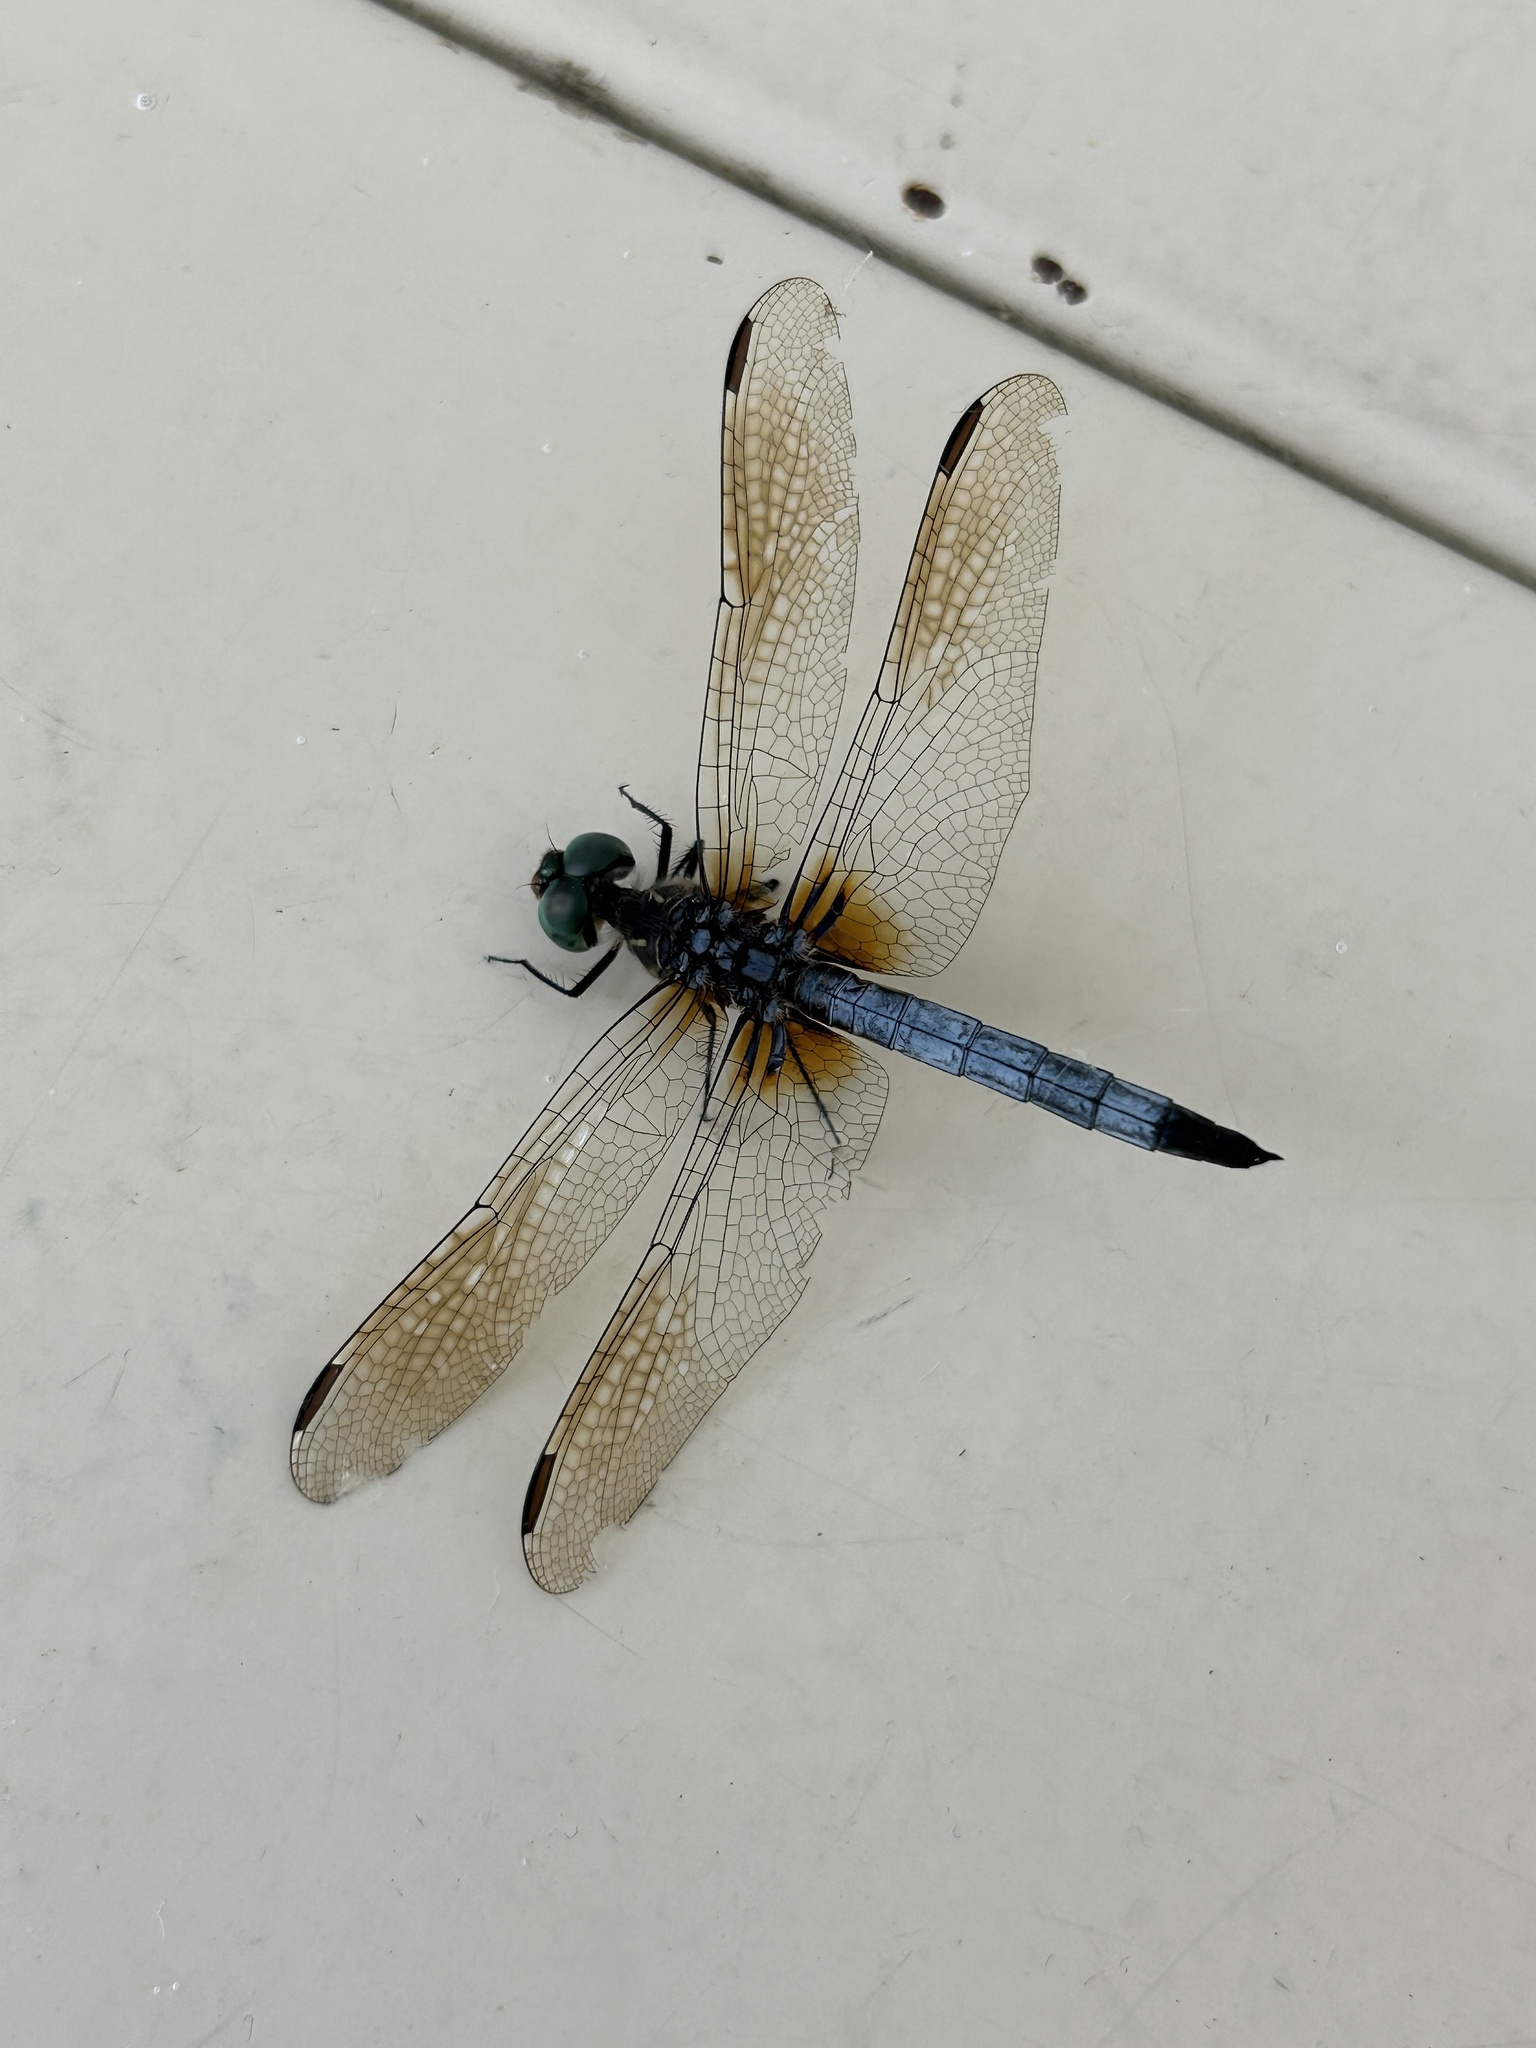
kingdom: Animalia
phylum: Arthropoda
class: Insecta
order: Odonata
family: Libellulidae
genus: Pachydiplax
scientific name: Pachydiplax longipennis
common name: Blue dasher
